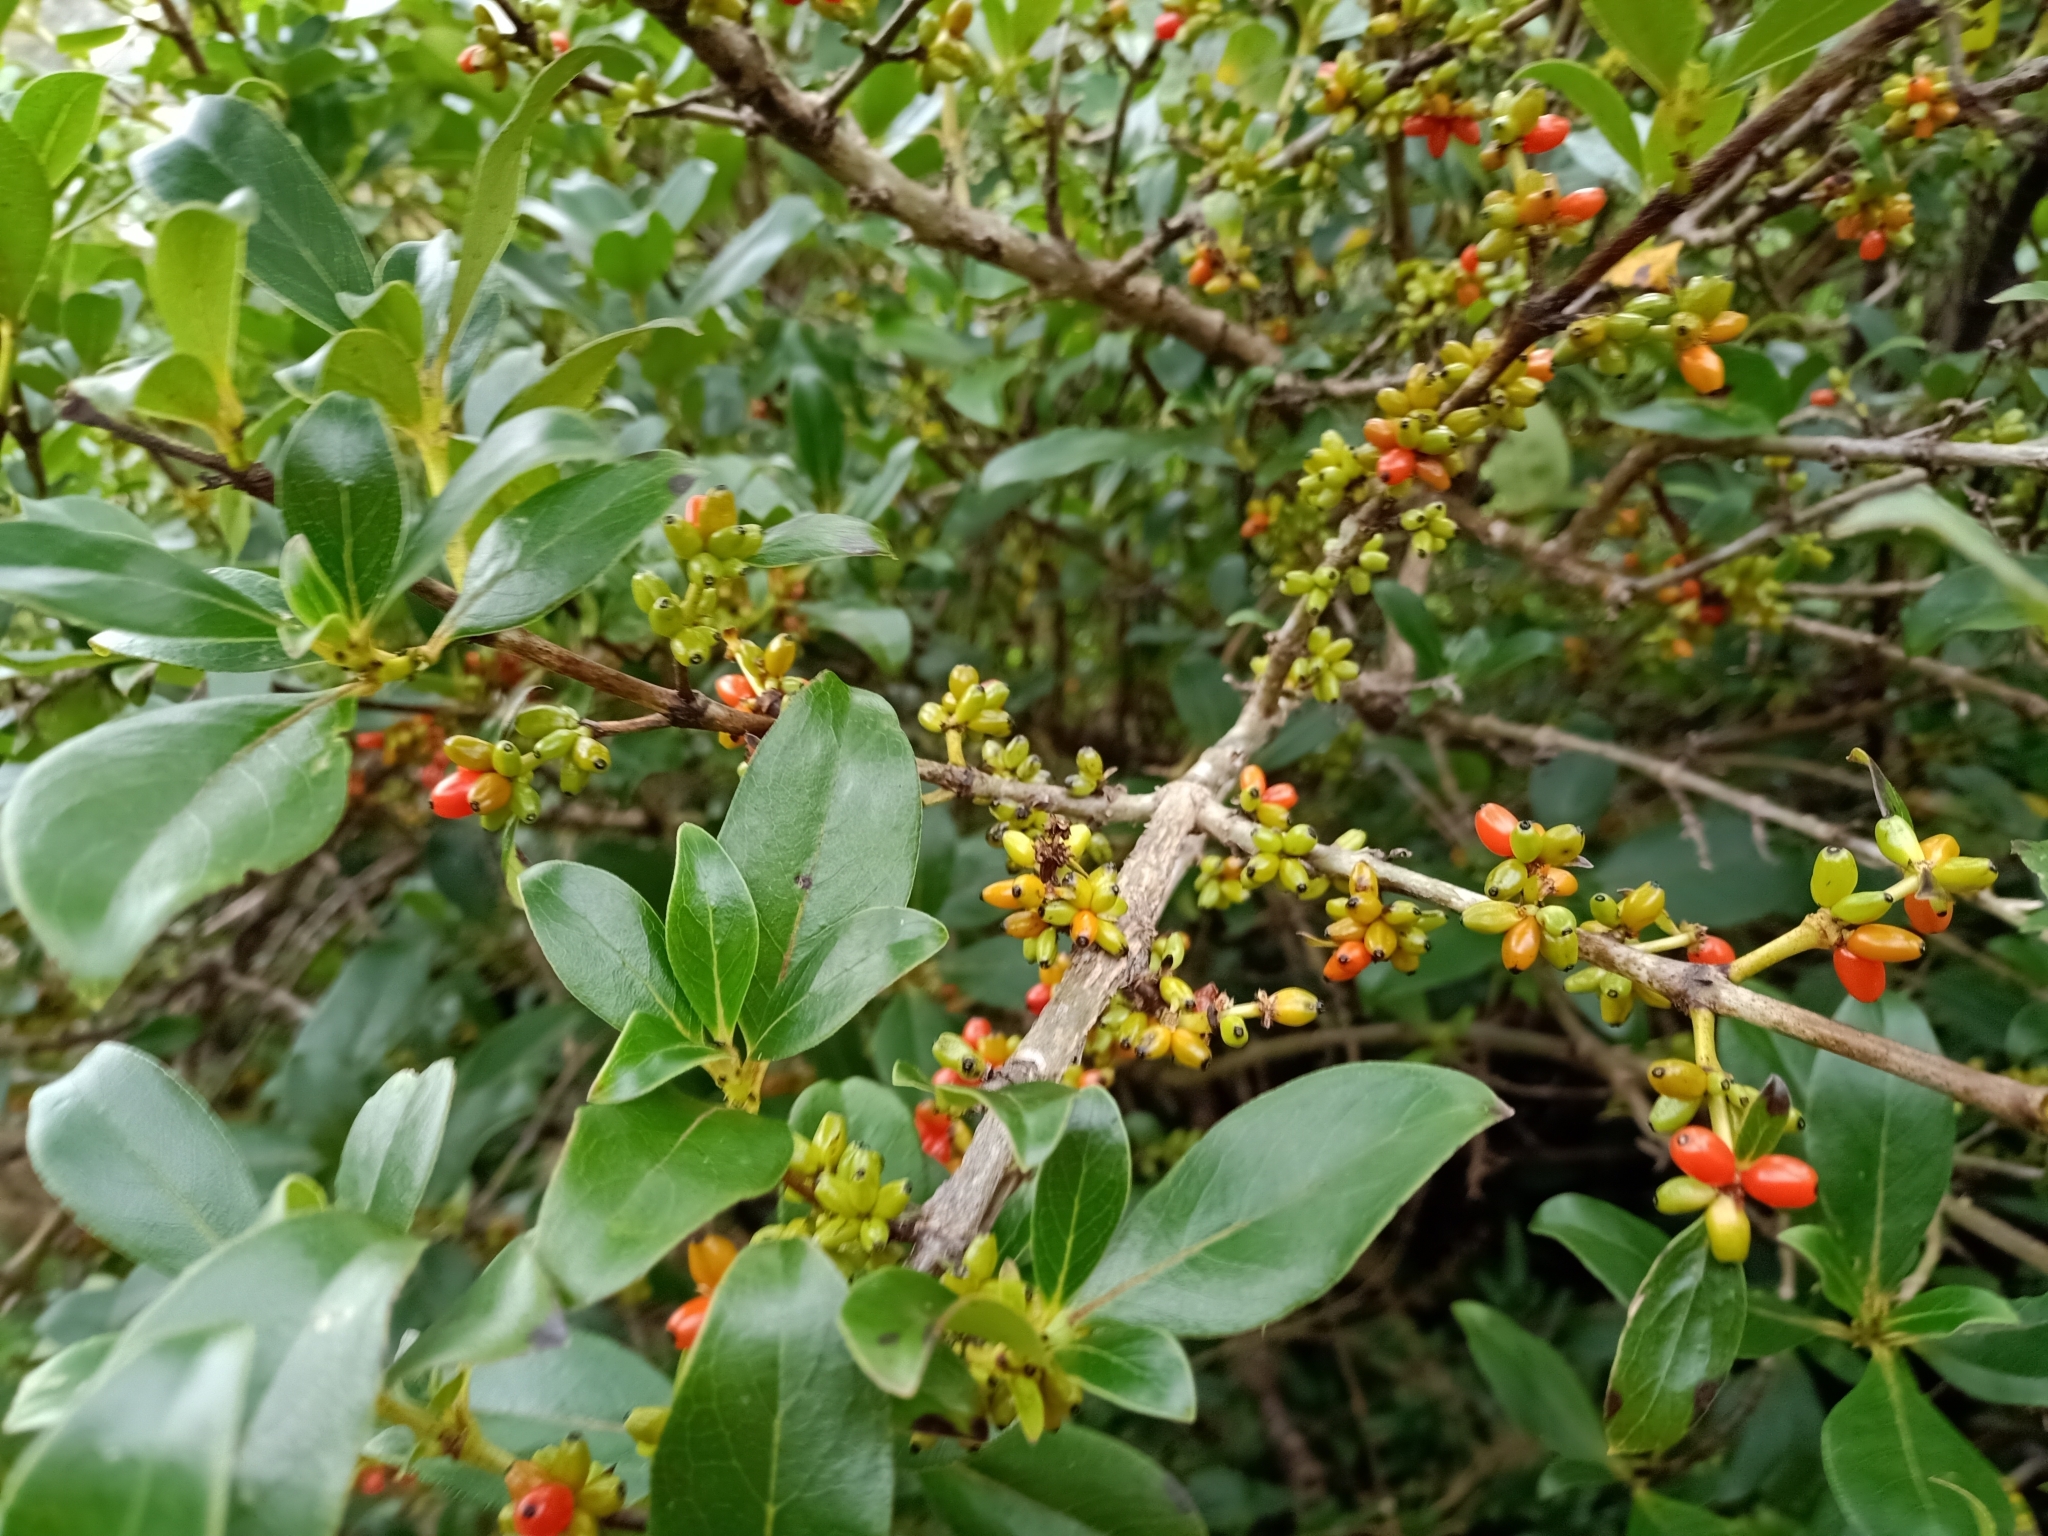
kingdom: Plantae
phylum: Tracheophyta
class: Magnoliopsida
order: Gentianales
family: Rubiaceae
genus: Coprosma
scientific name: Coprosma robusta
